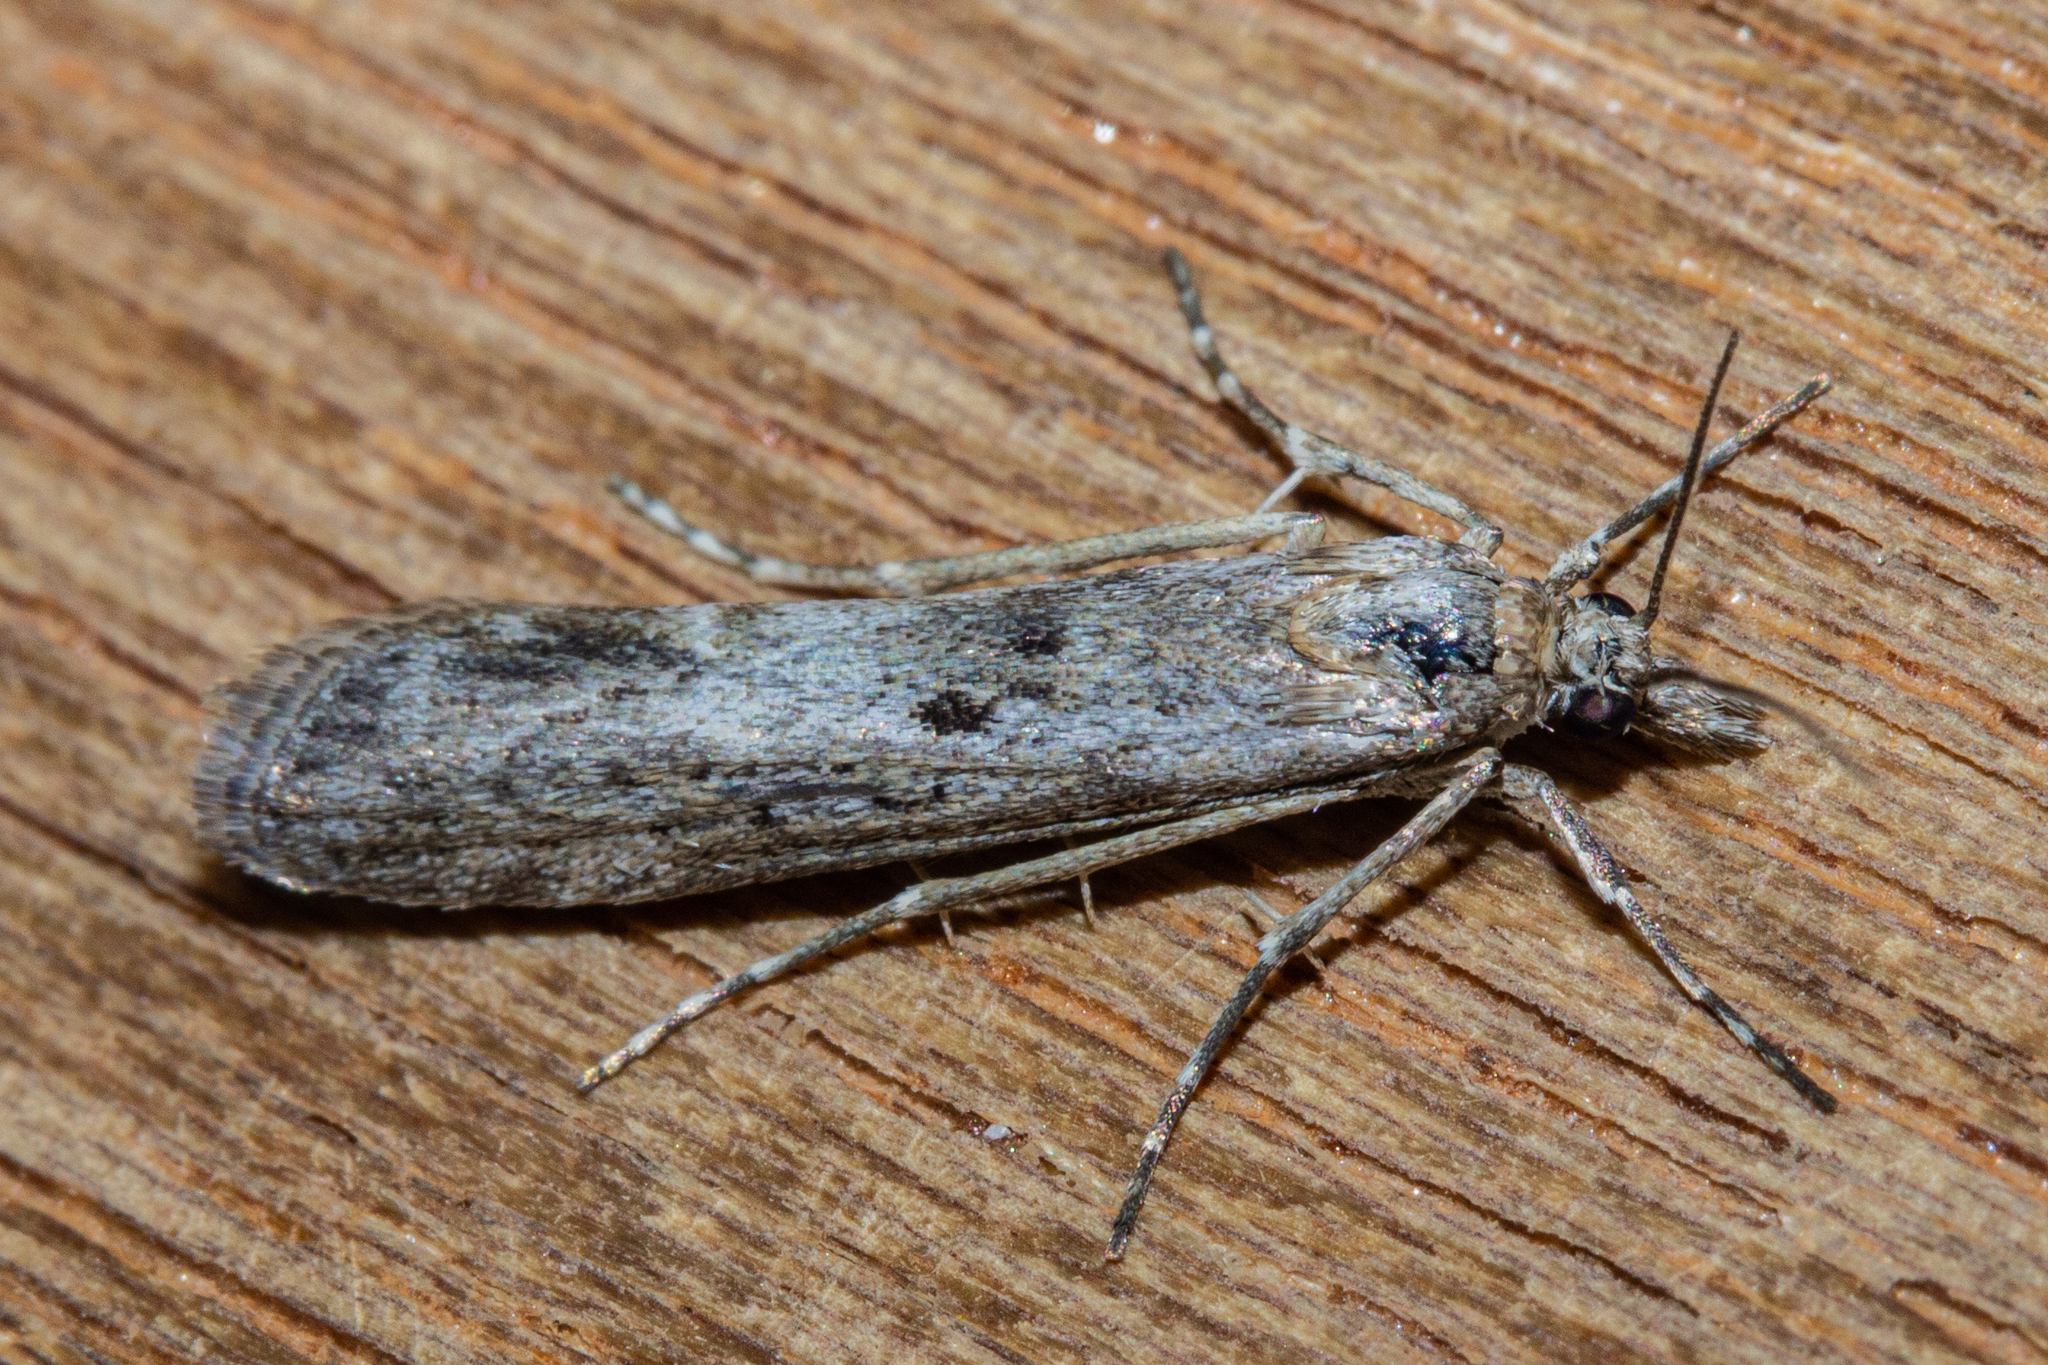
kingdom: Animalia
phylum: Arthropoda
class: Insecta
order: Lepidoptera
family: Crambidae
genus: Eudonia
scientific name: Eudonia leptalea
